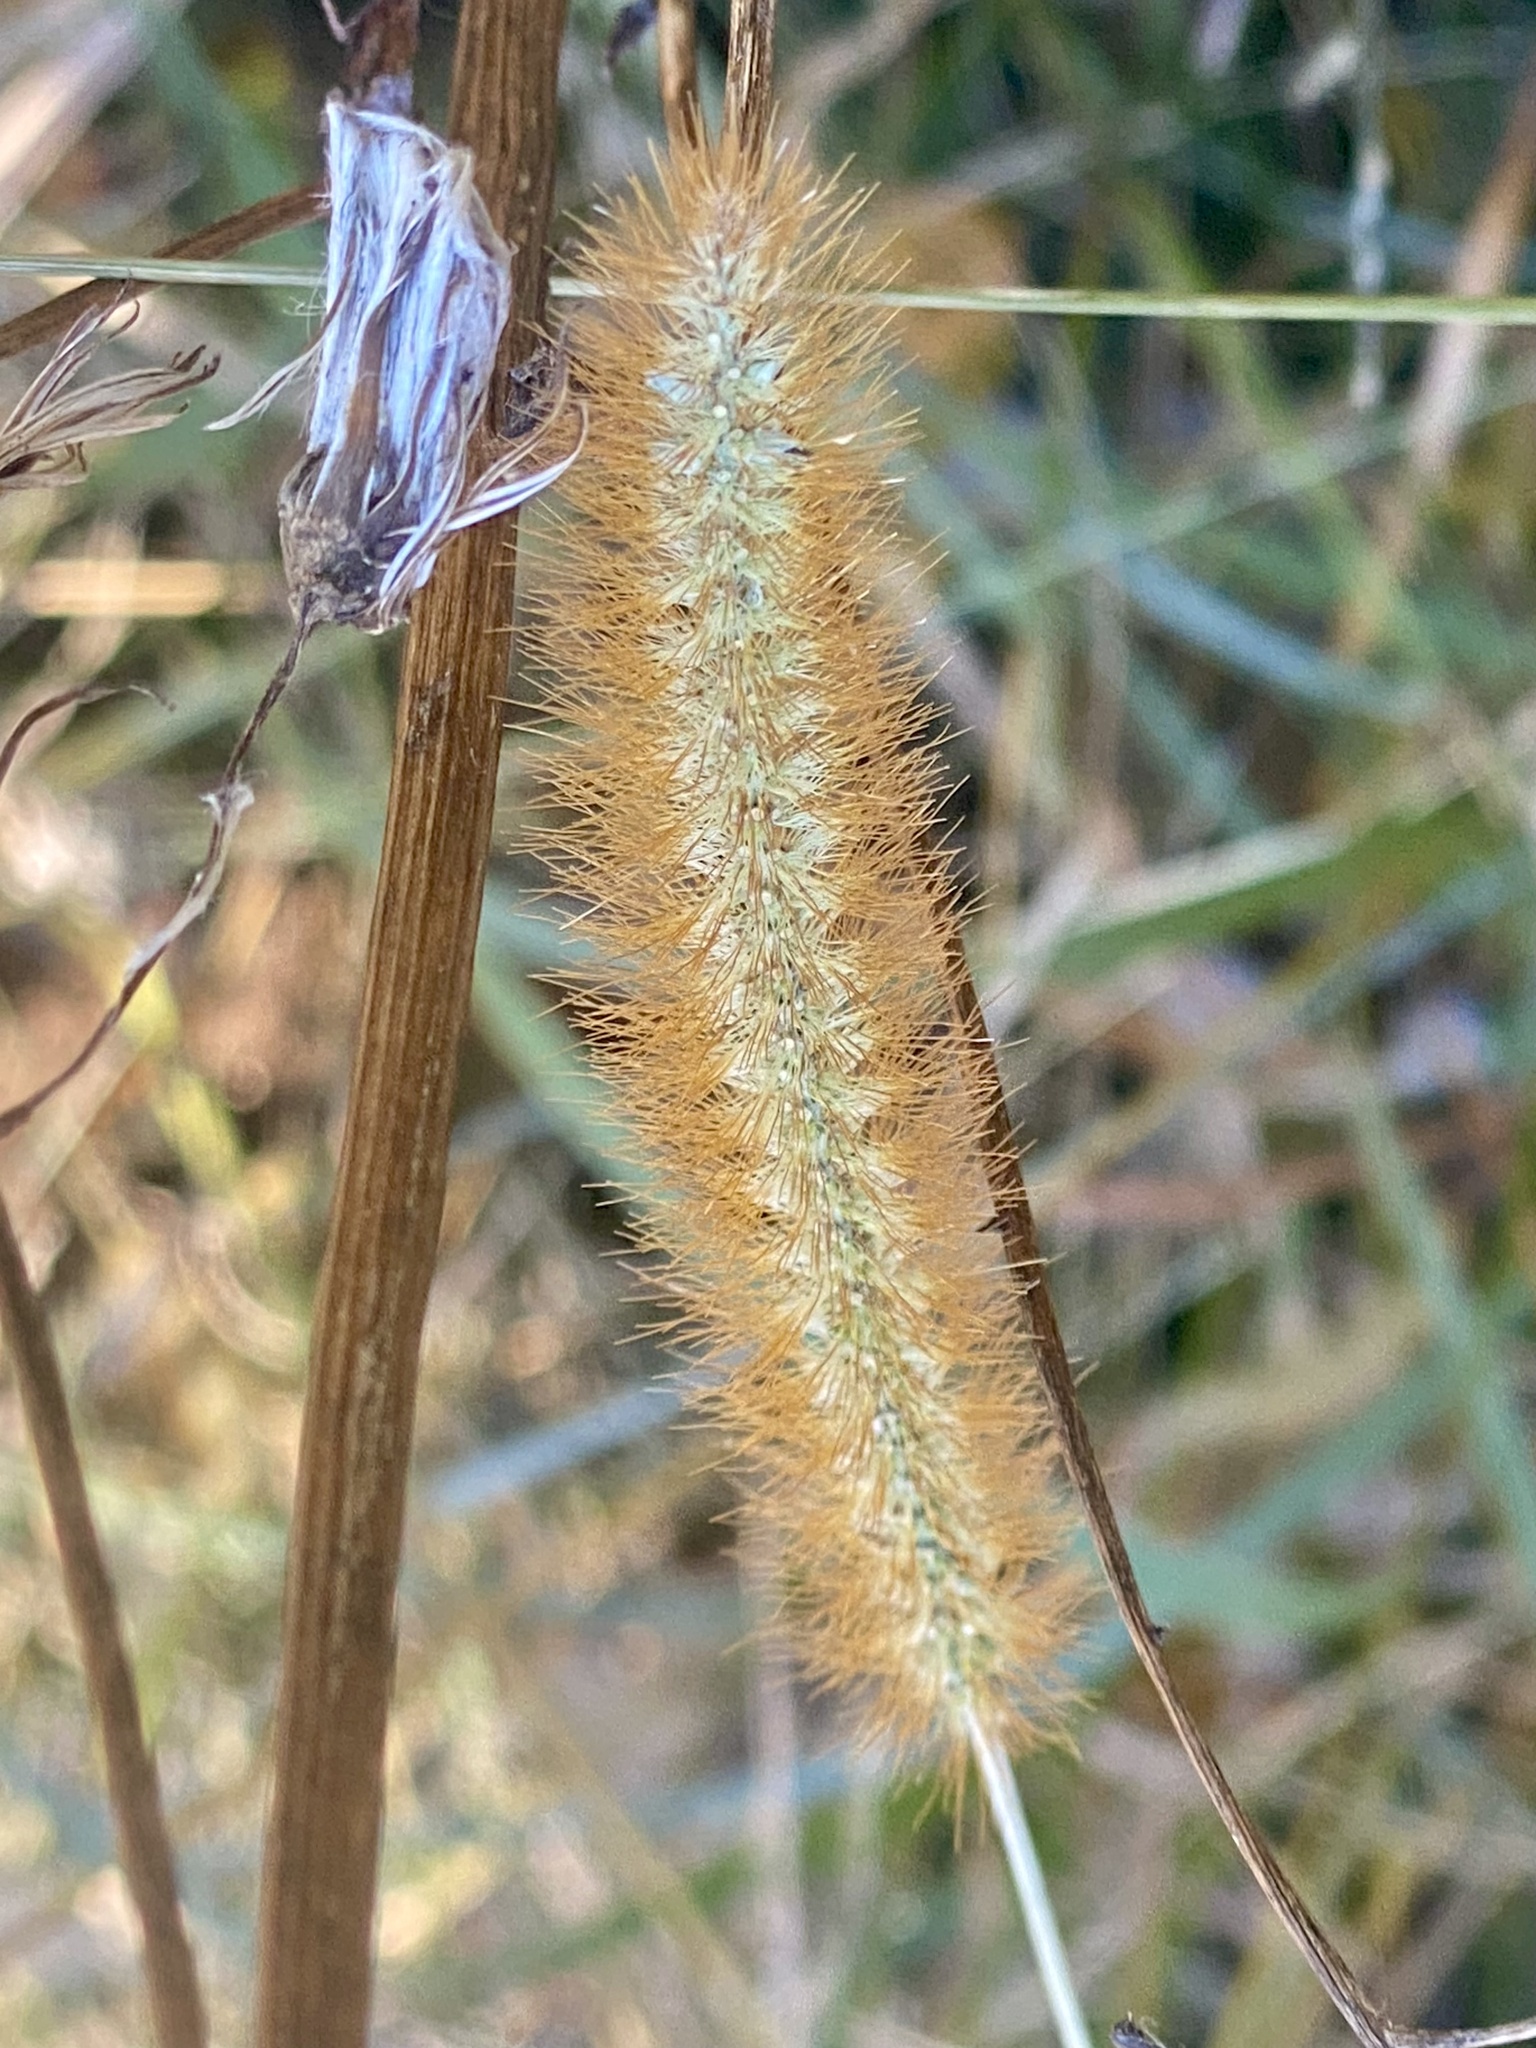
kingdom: Plantae
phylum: Tracheophyta
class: Liliopsida
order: Poales
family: Poaceae
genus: Setaria
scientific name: Setaria pumila
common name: Yellow bristle-grass
